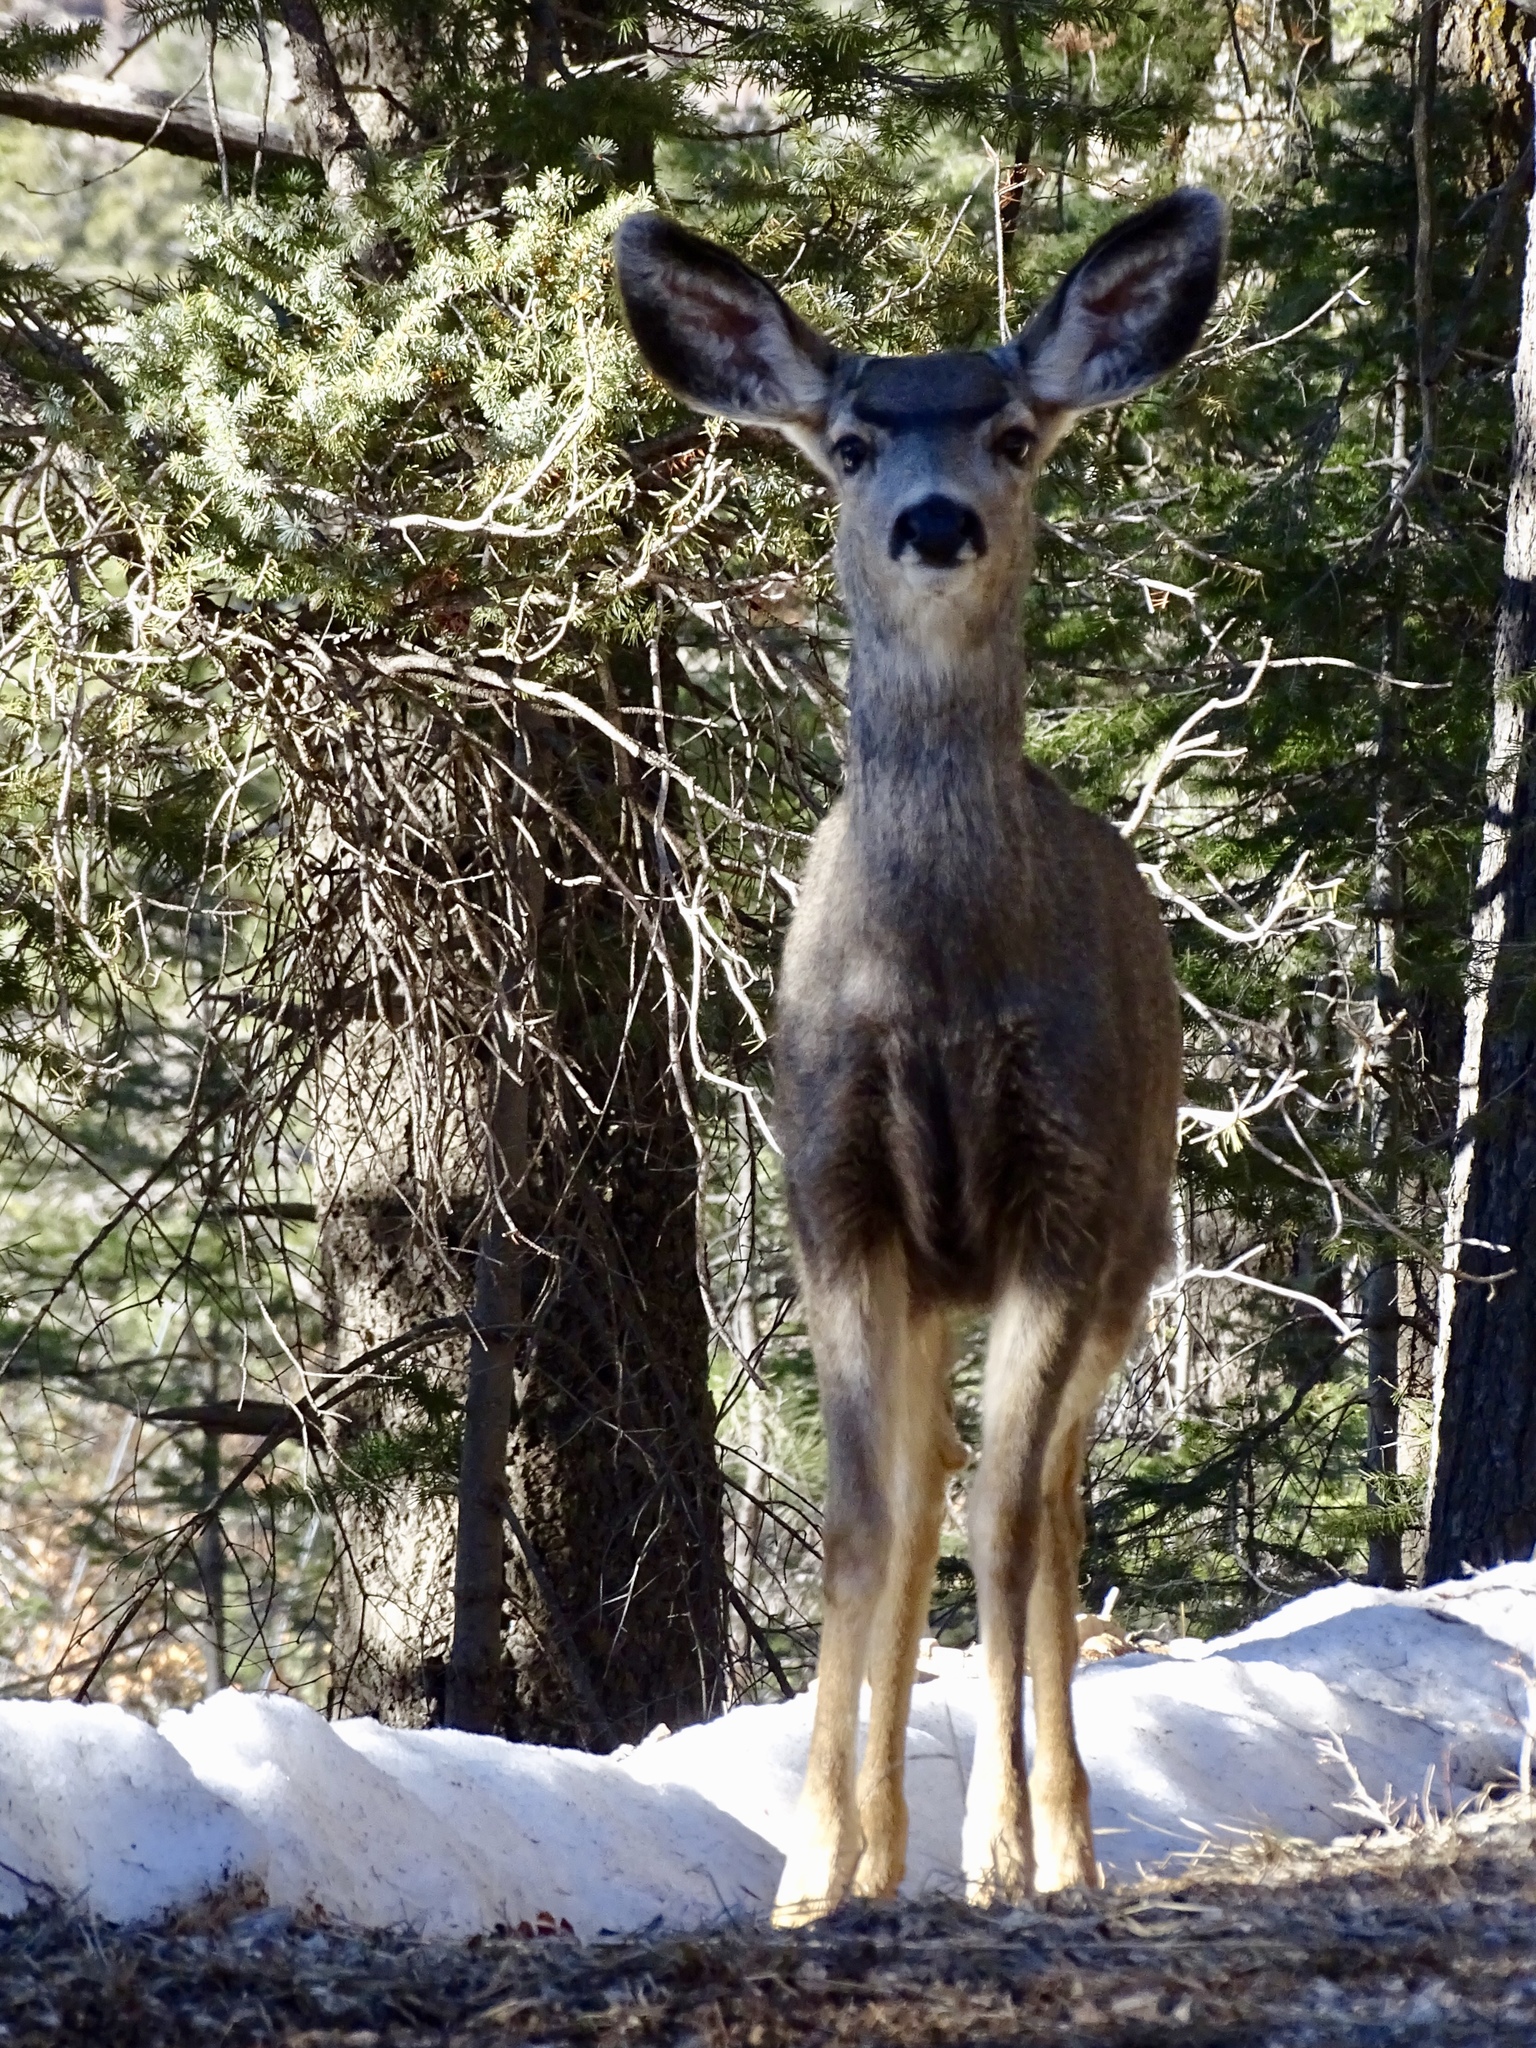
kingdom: Animalia
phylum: Chordata
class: Mammalia
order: Artiodactyla
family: Cervidae
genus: Odocoileus
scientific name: Odocoileus hemionus
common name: Mule deer
